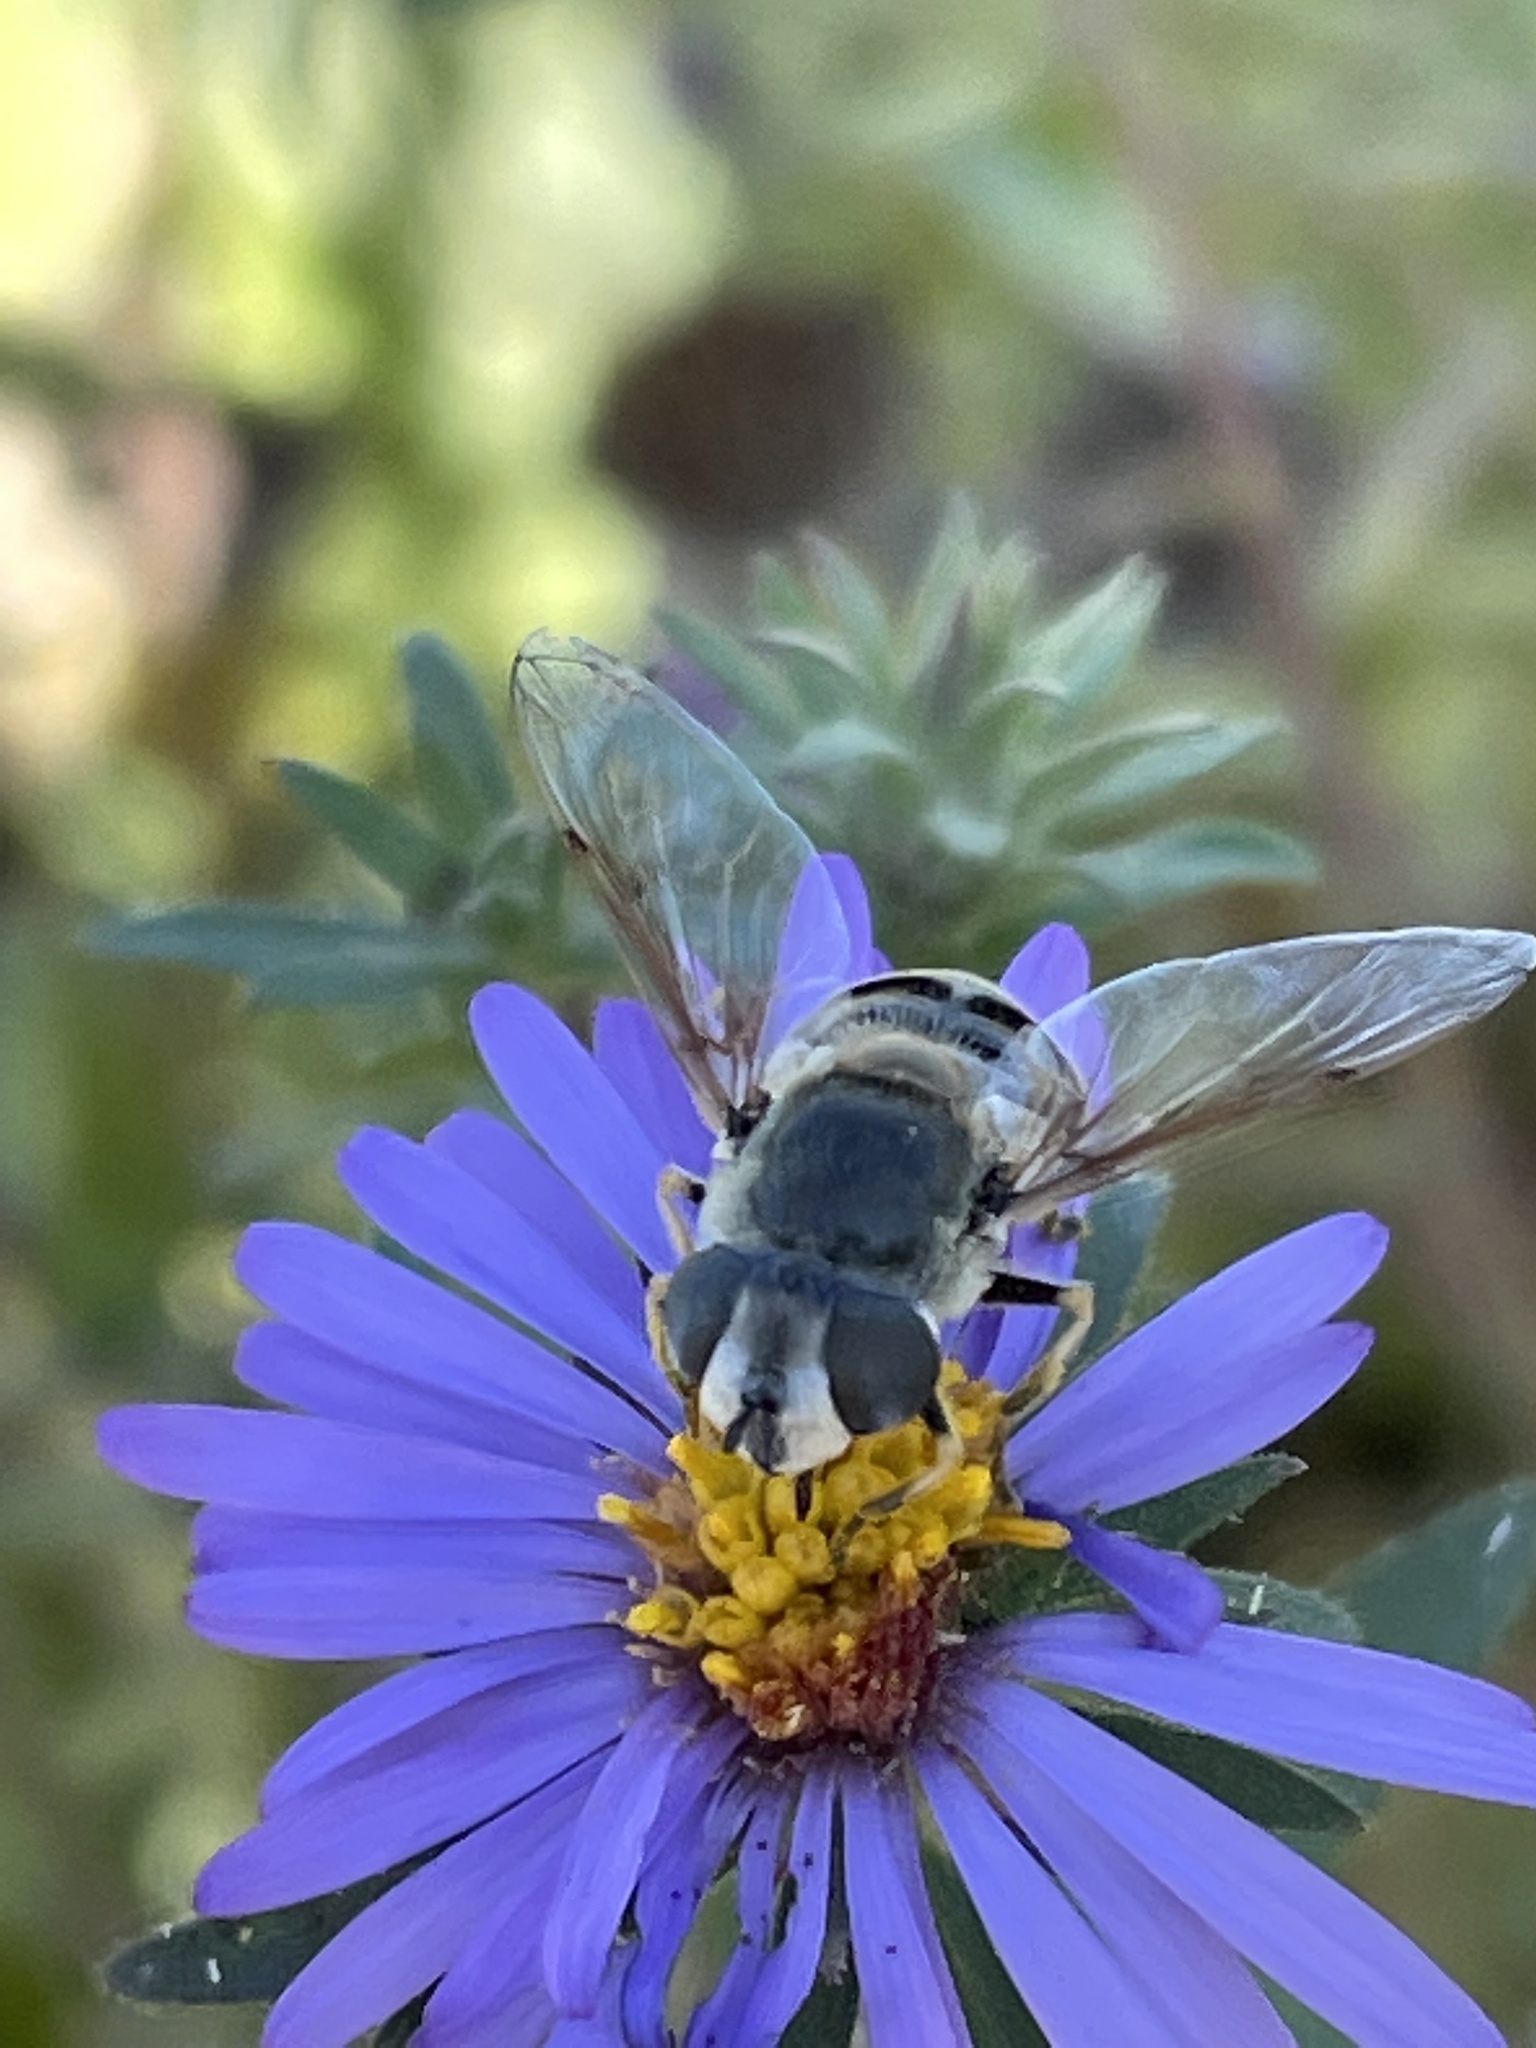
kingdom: Animalia
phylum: Arthropoda
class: Insecta
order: Diptera
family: Syrphidae
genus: Eristalis
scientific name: Eristalis stipator
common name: Yellow-shouldered drone fly
